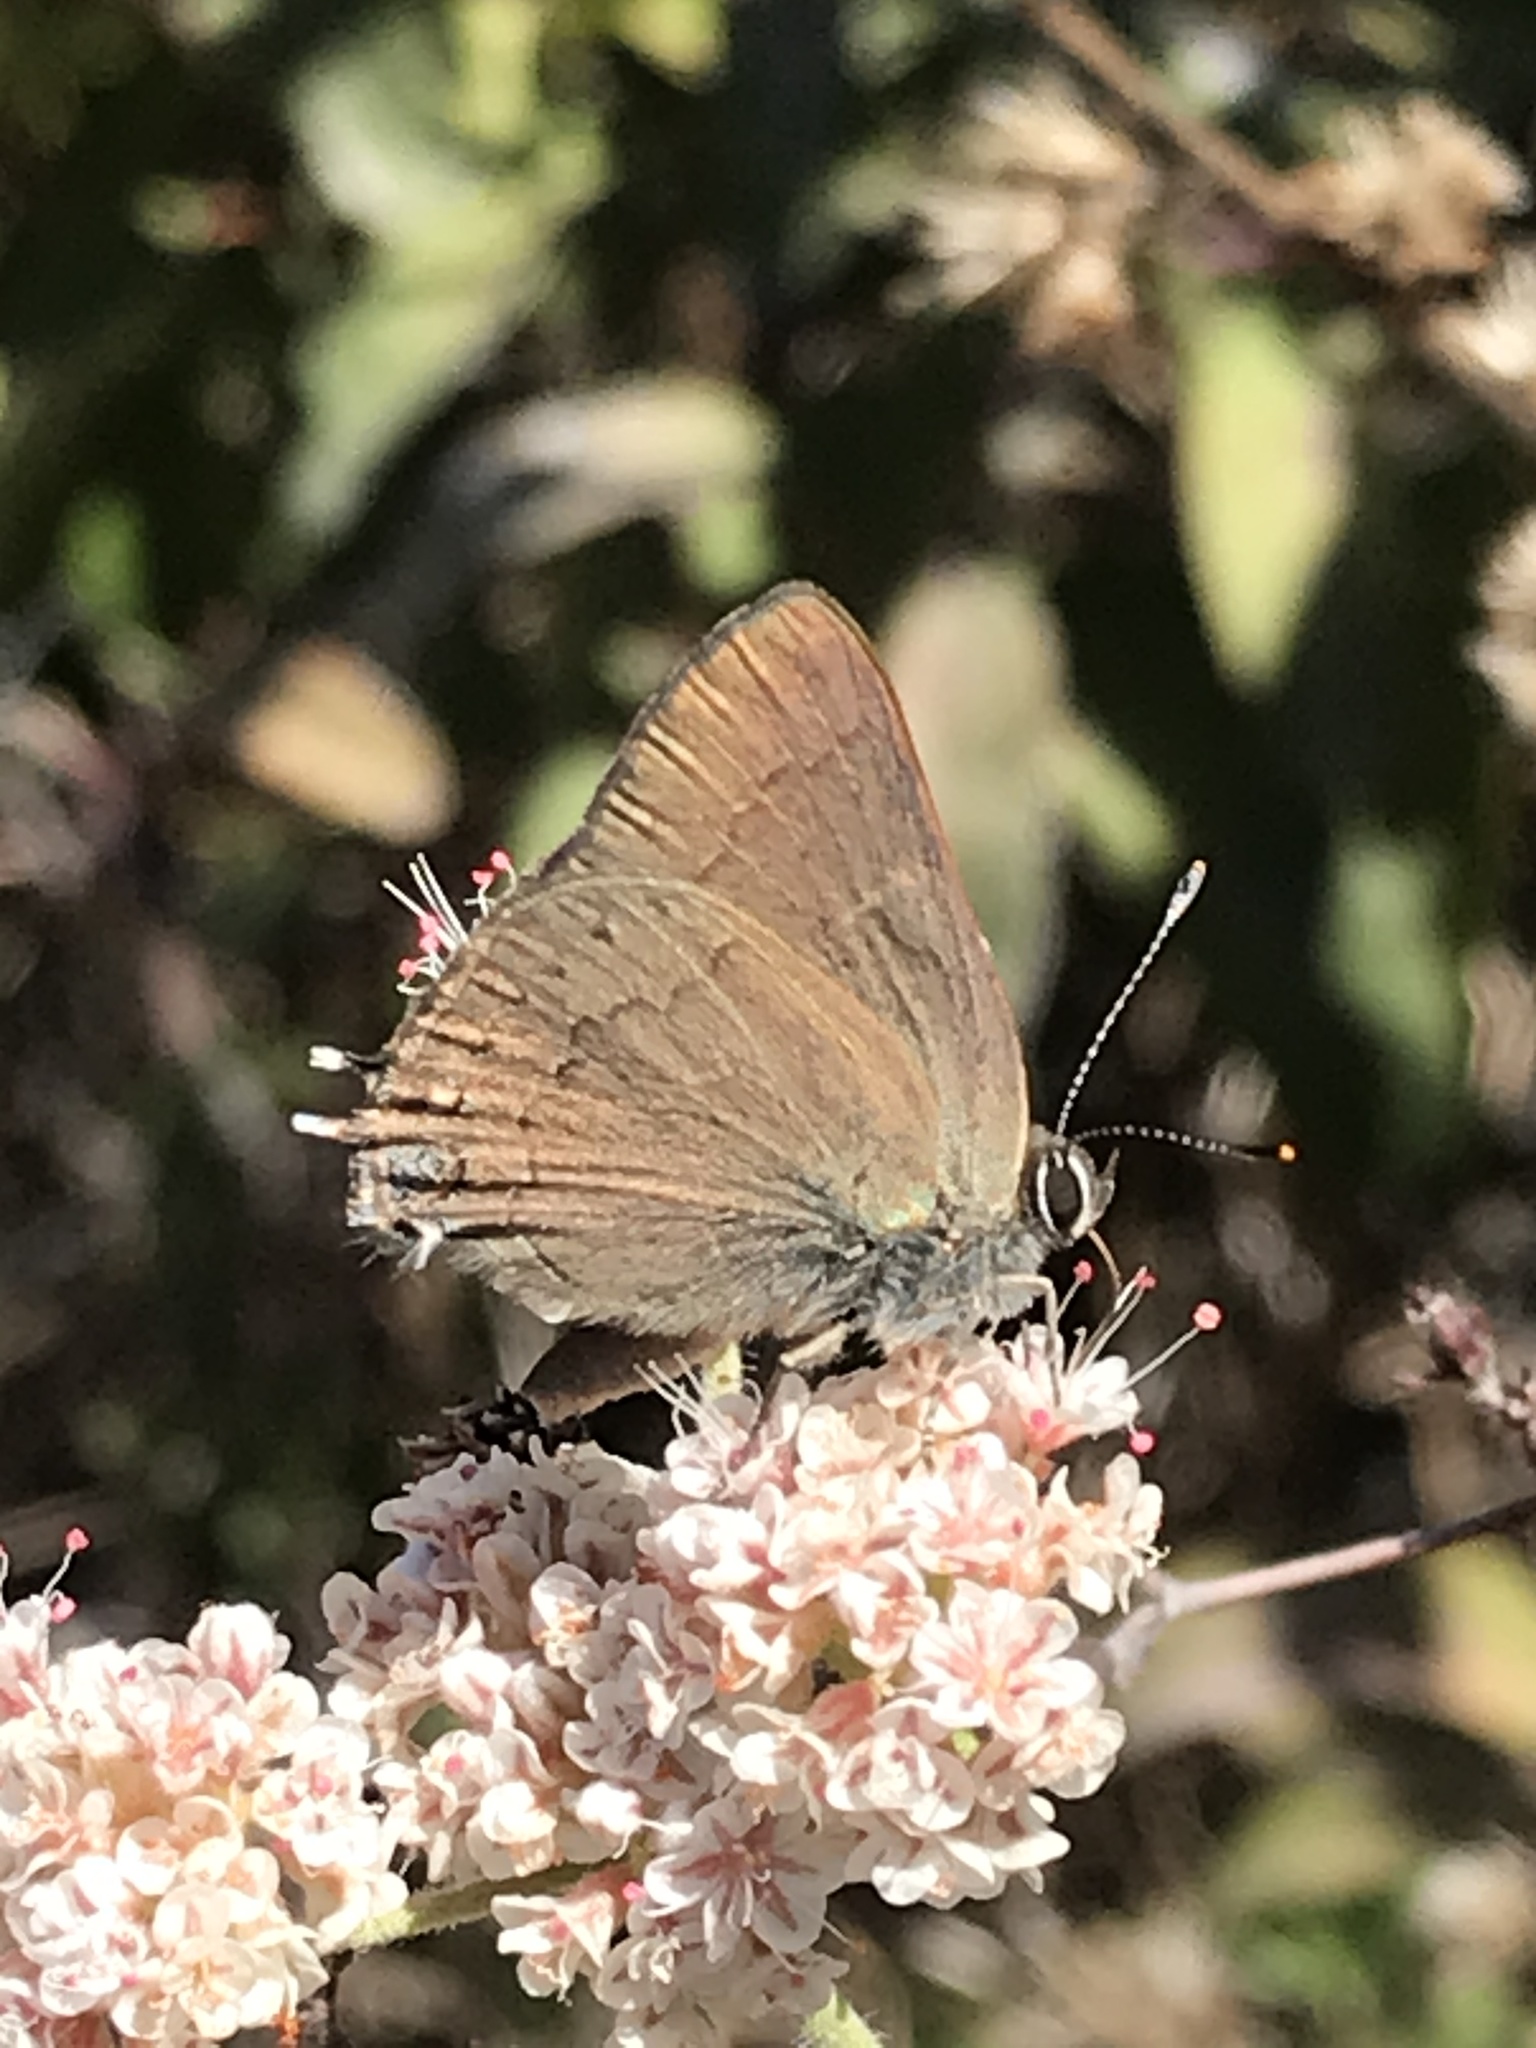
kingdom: Animalia
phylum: Arthropoda
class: Insecta
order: Lepidoptera
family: Lycaenidae
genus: Strymon
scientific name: Strymon saepium
